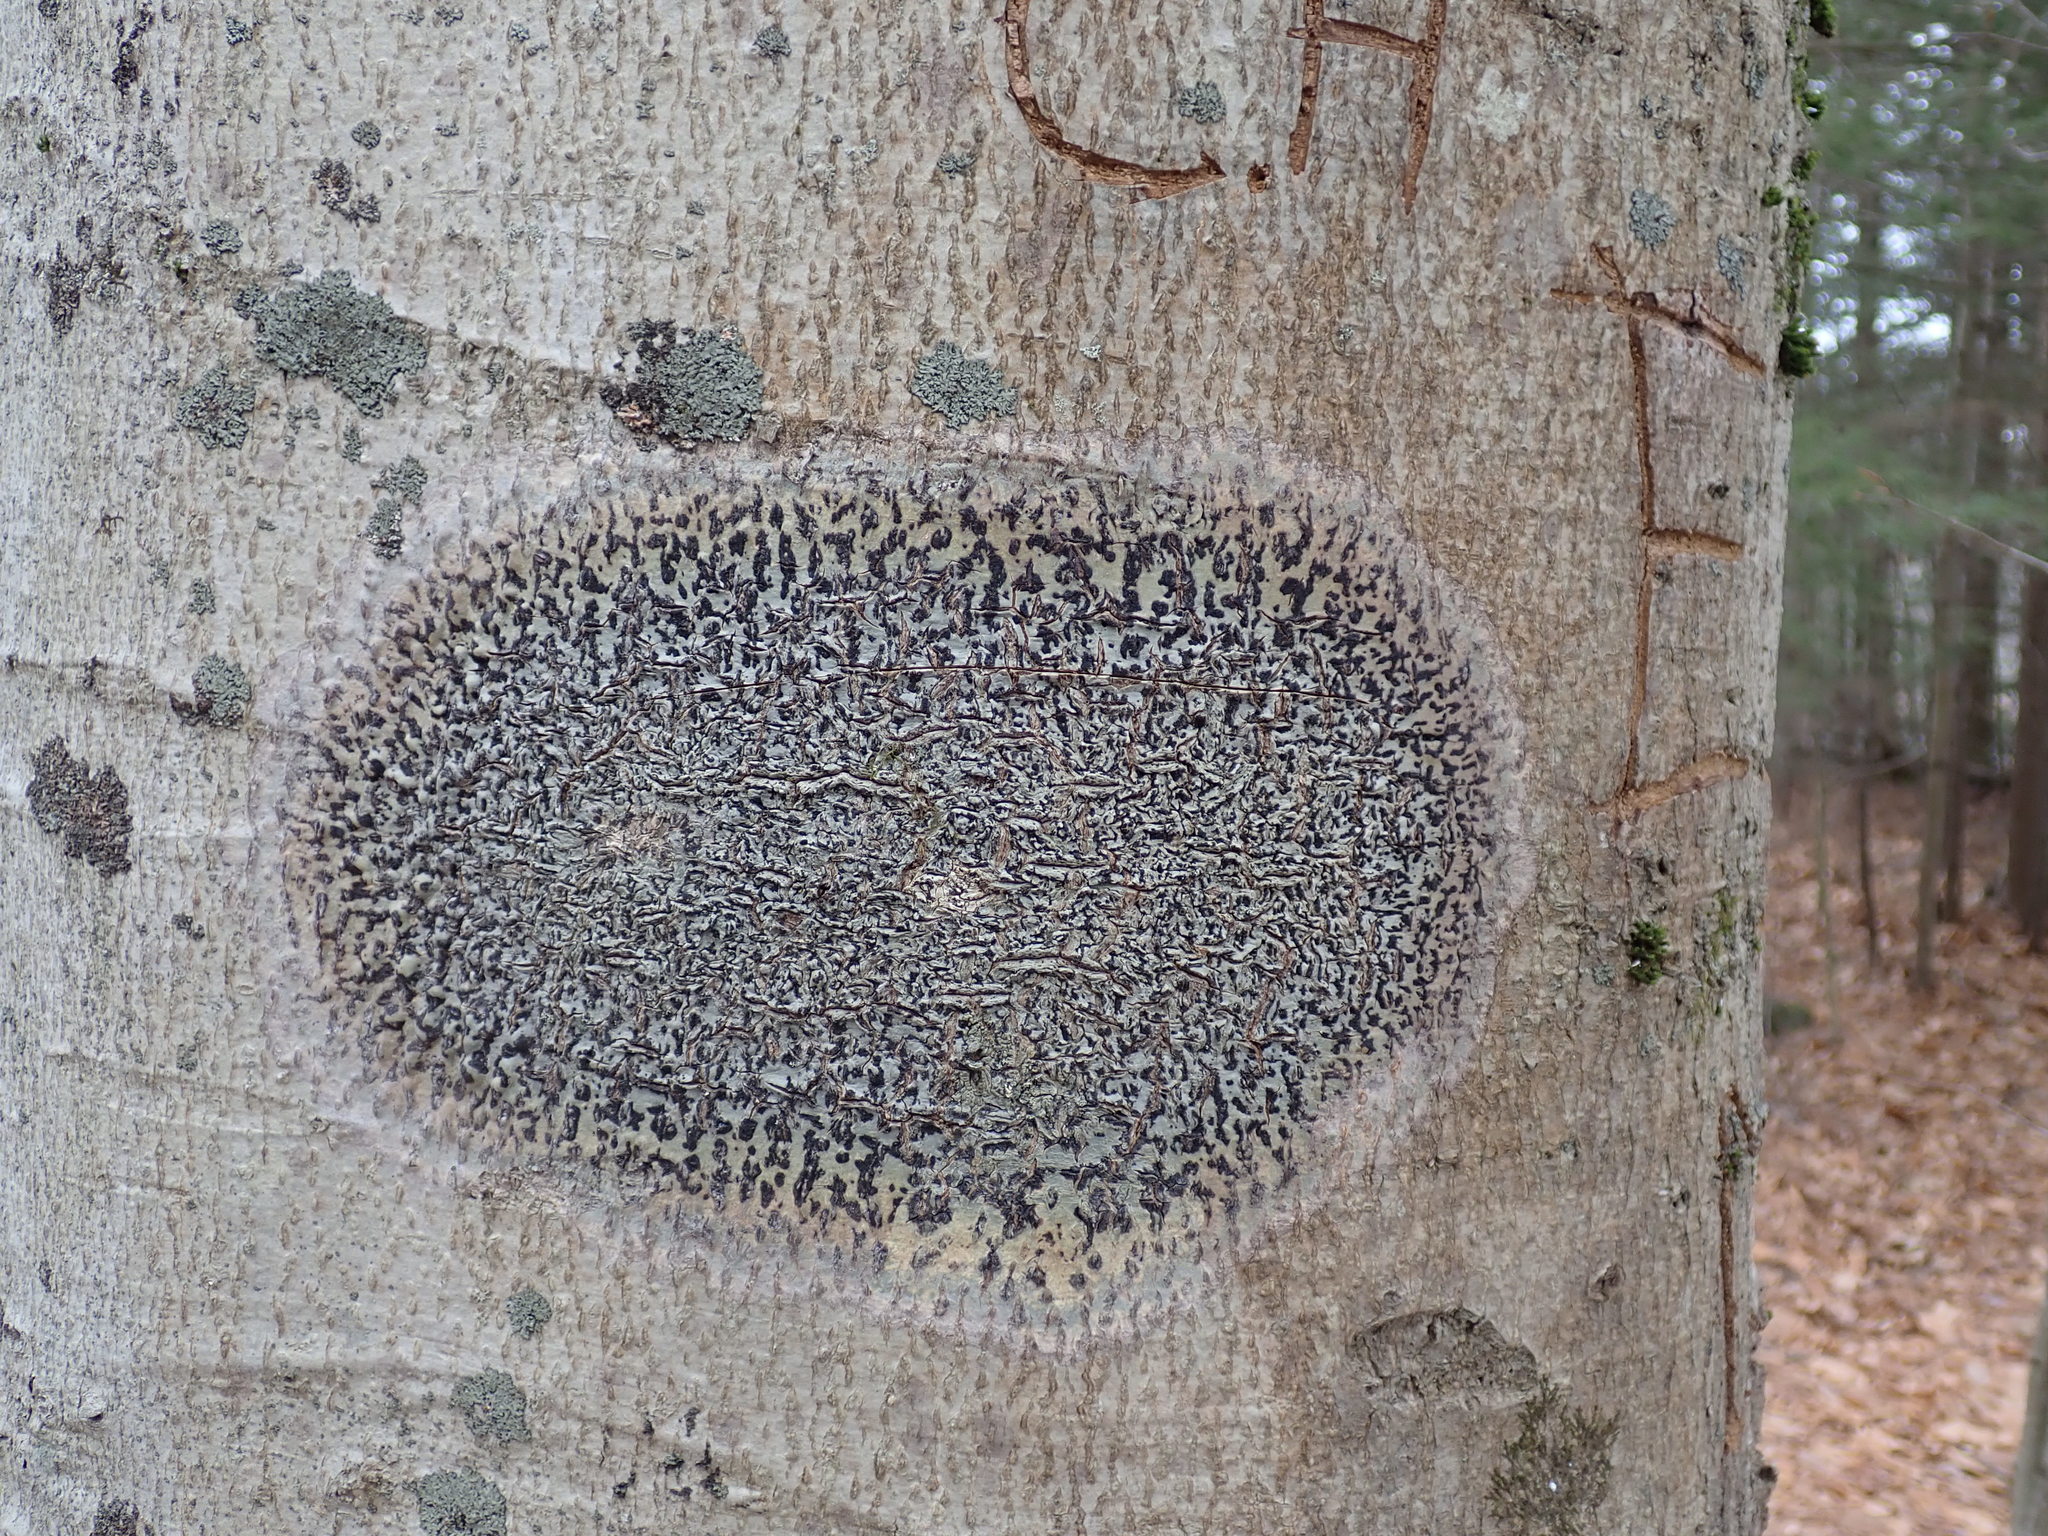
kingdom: Fungi
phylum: Ascomycota
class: Dothideomycetes
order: Trypetheliales
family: Trypetheliaceae
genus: Viridothelium
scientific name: Viridothelium virens
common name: Speckled blister lichen
